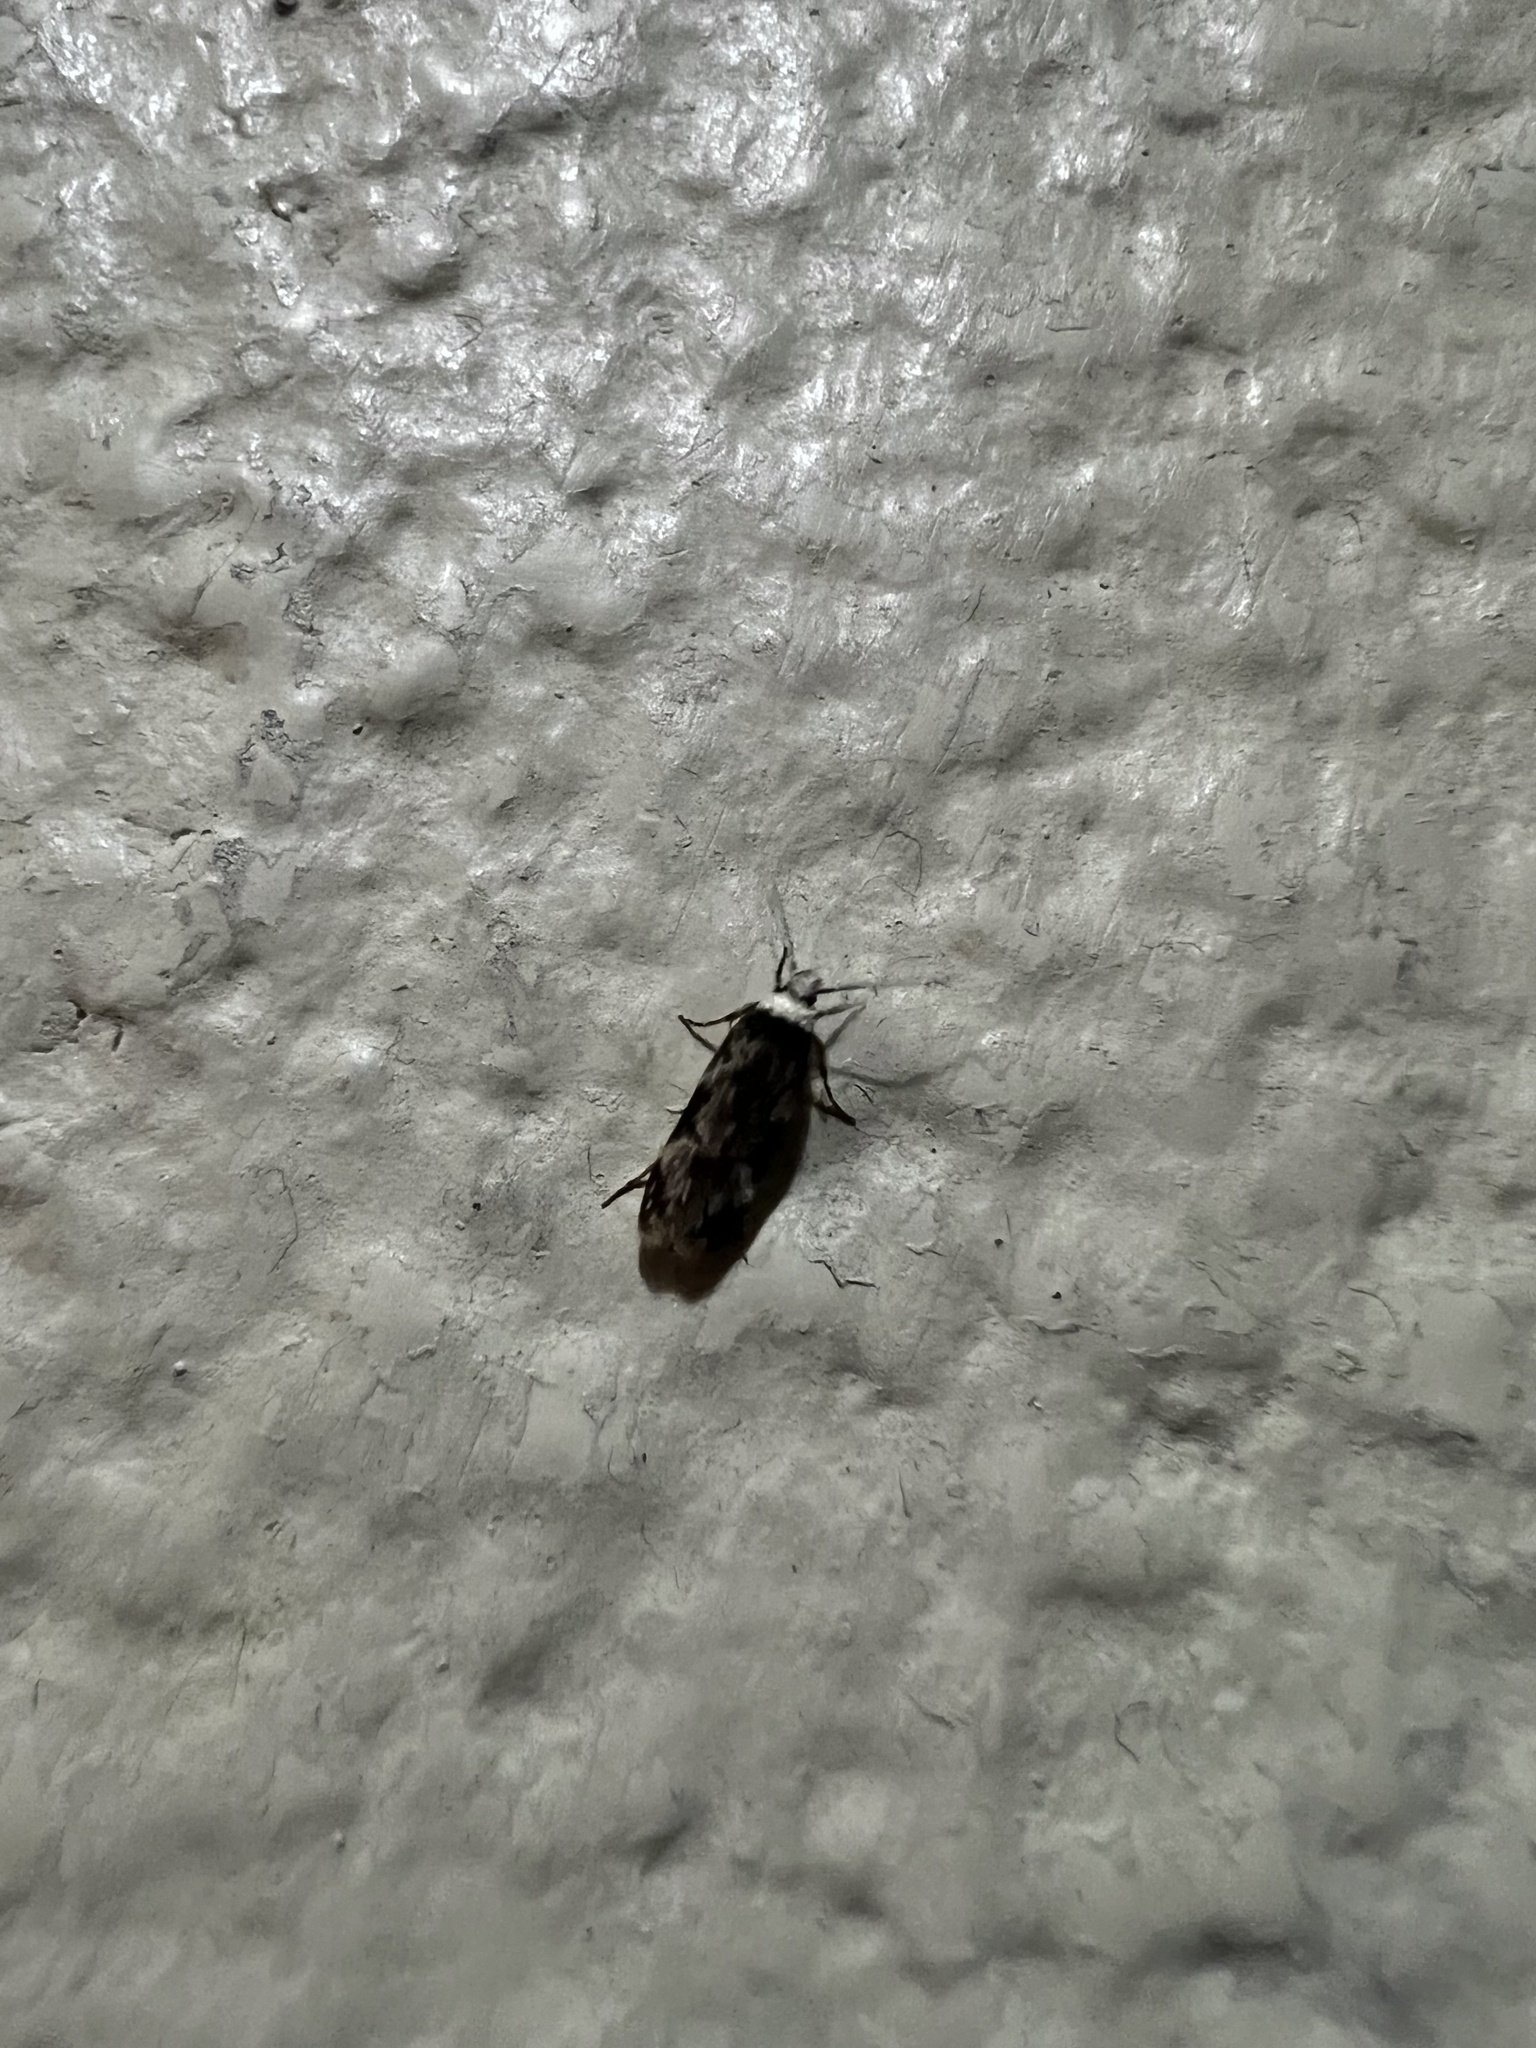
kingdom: Animalia
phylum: Arthropoda
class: Insecta
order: Lepidoptera
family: Oecophoridae
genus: Endrosis
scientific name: Endrosis sarcitrella
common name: White-shouldered house moth
